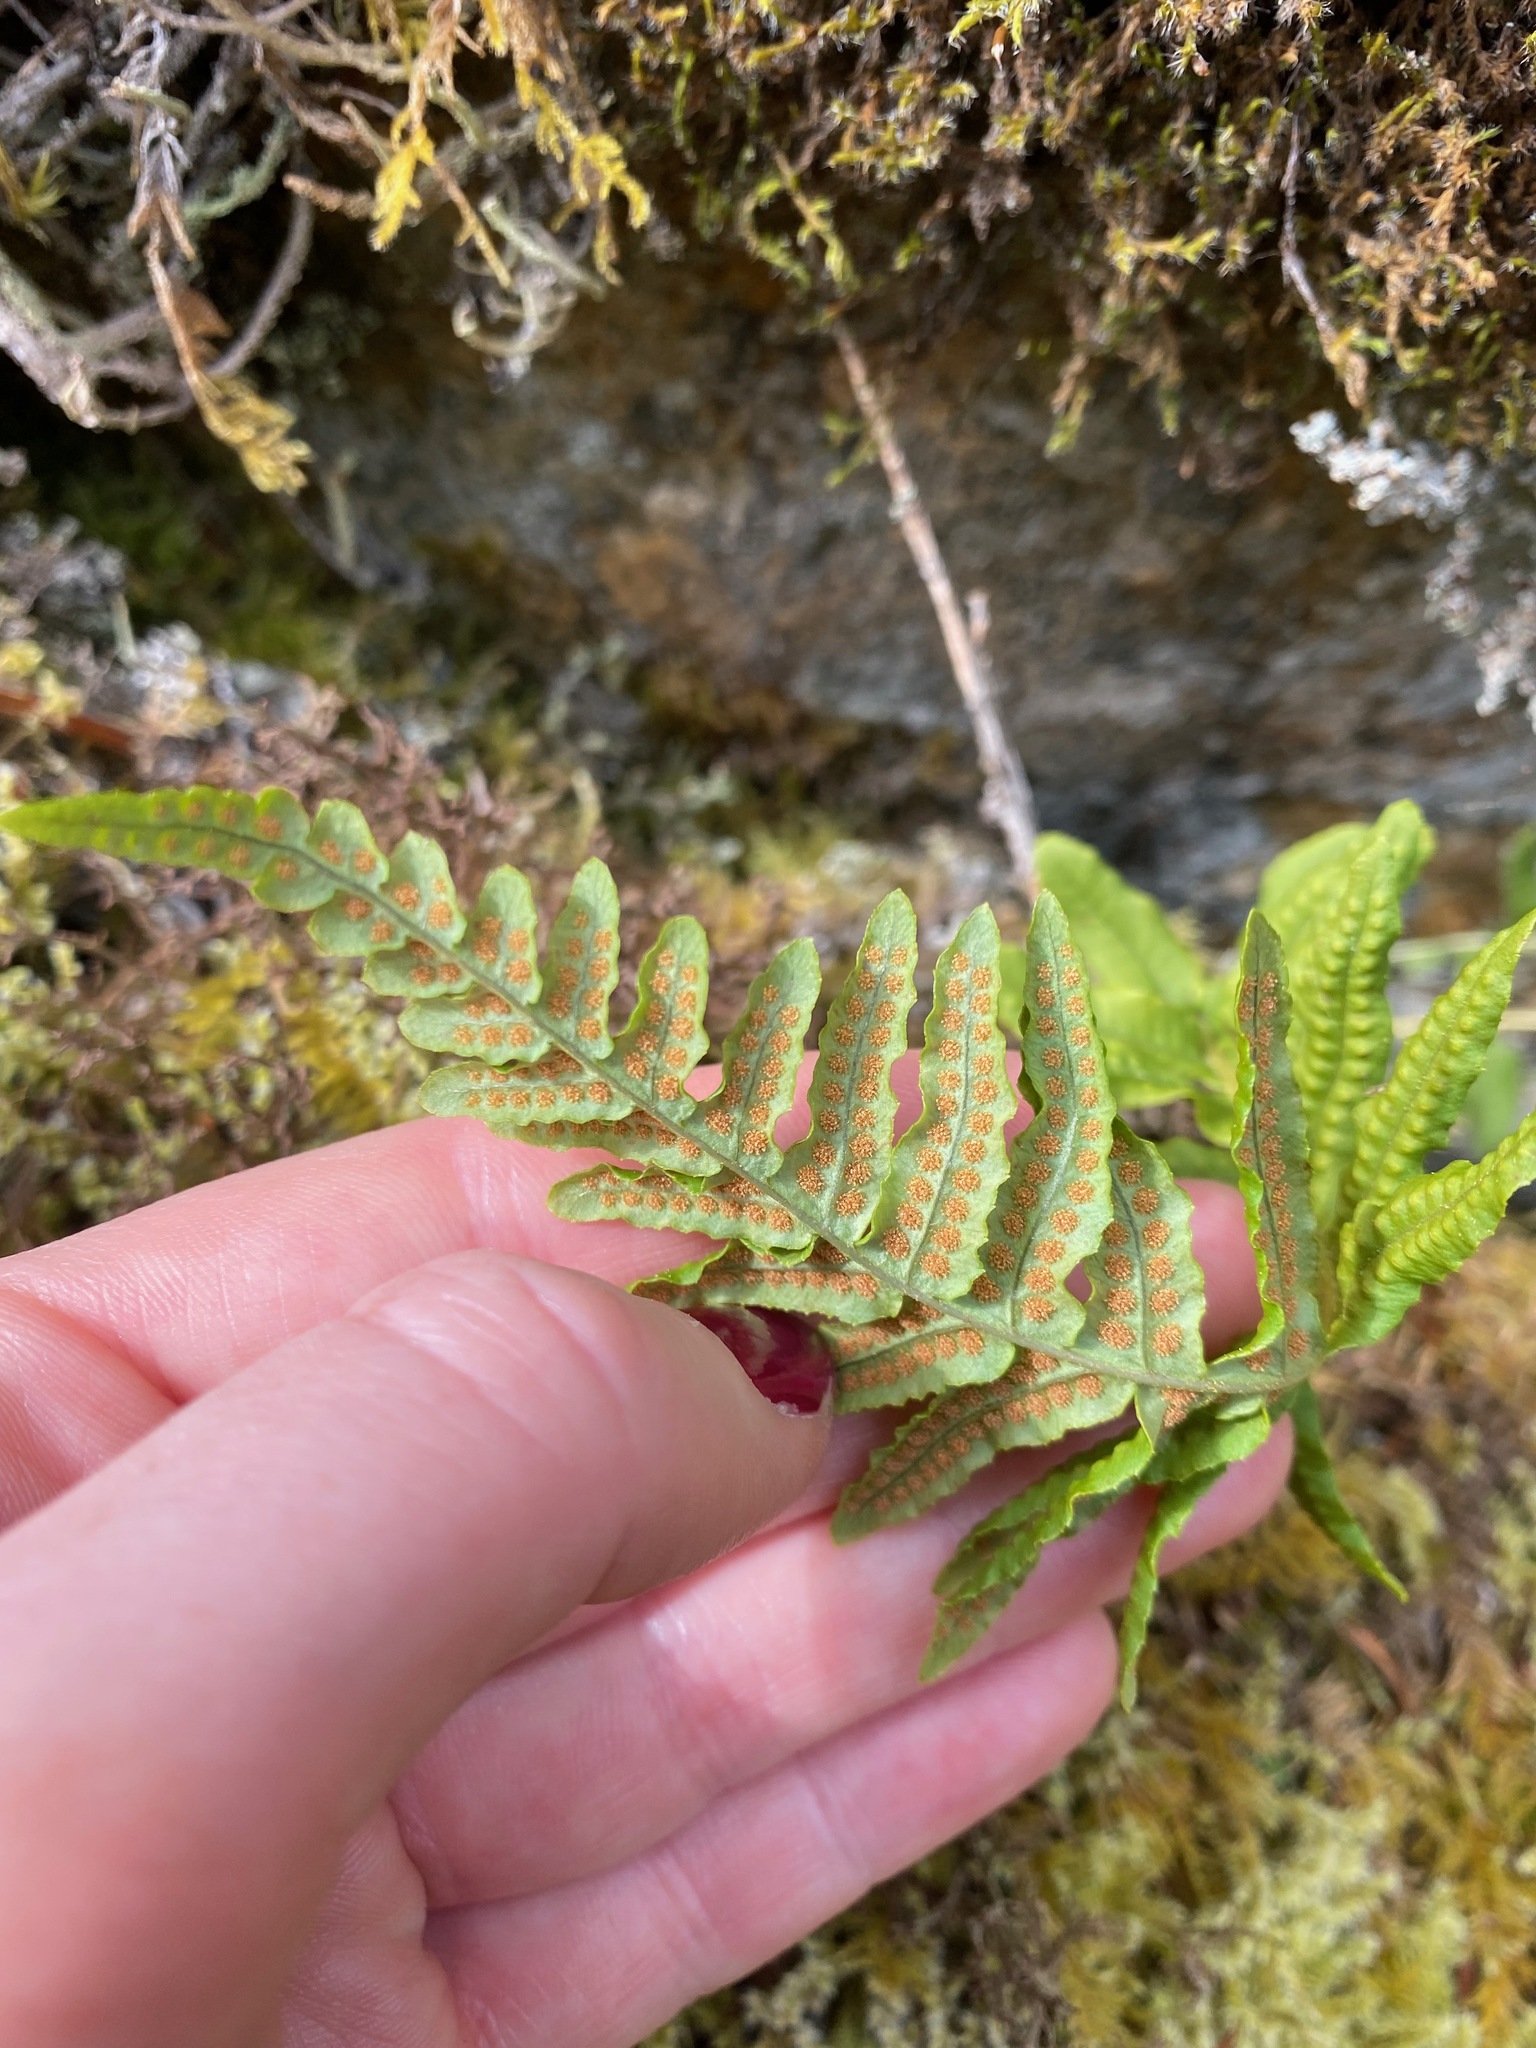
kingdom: Plantae
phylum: Tracheophyta
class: Polypodiopsida
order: Polypodiales
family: Polypodiaceae
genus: Polypodium
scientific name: Polypodium glycyrrhiza
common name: Licorice fern
